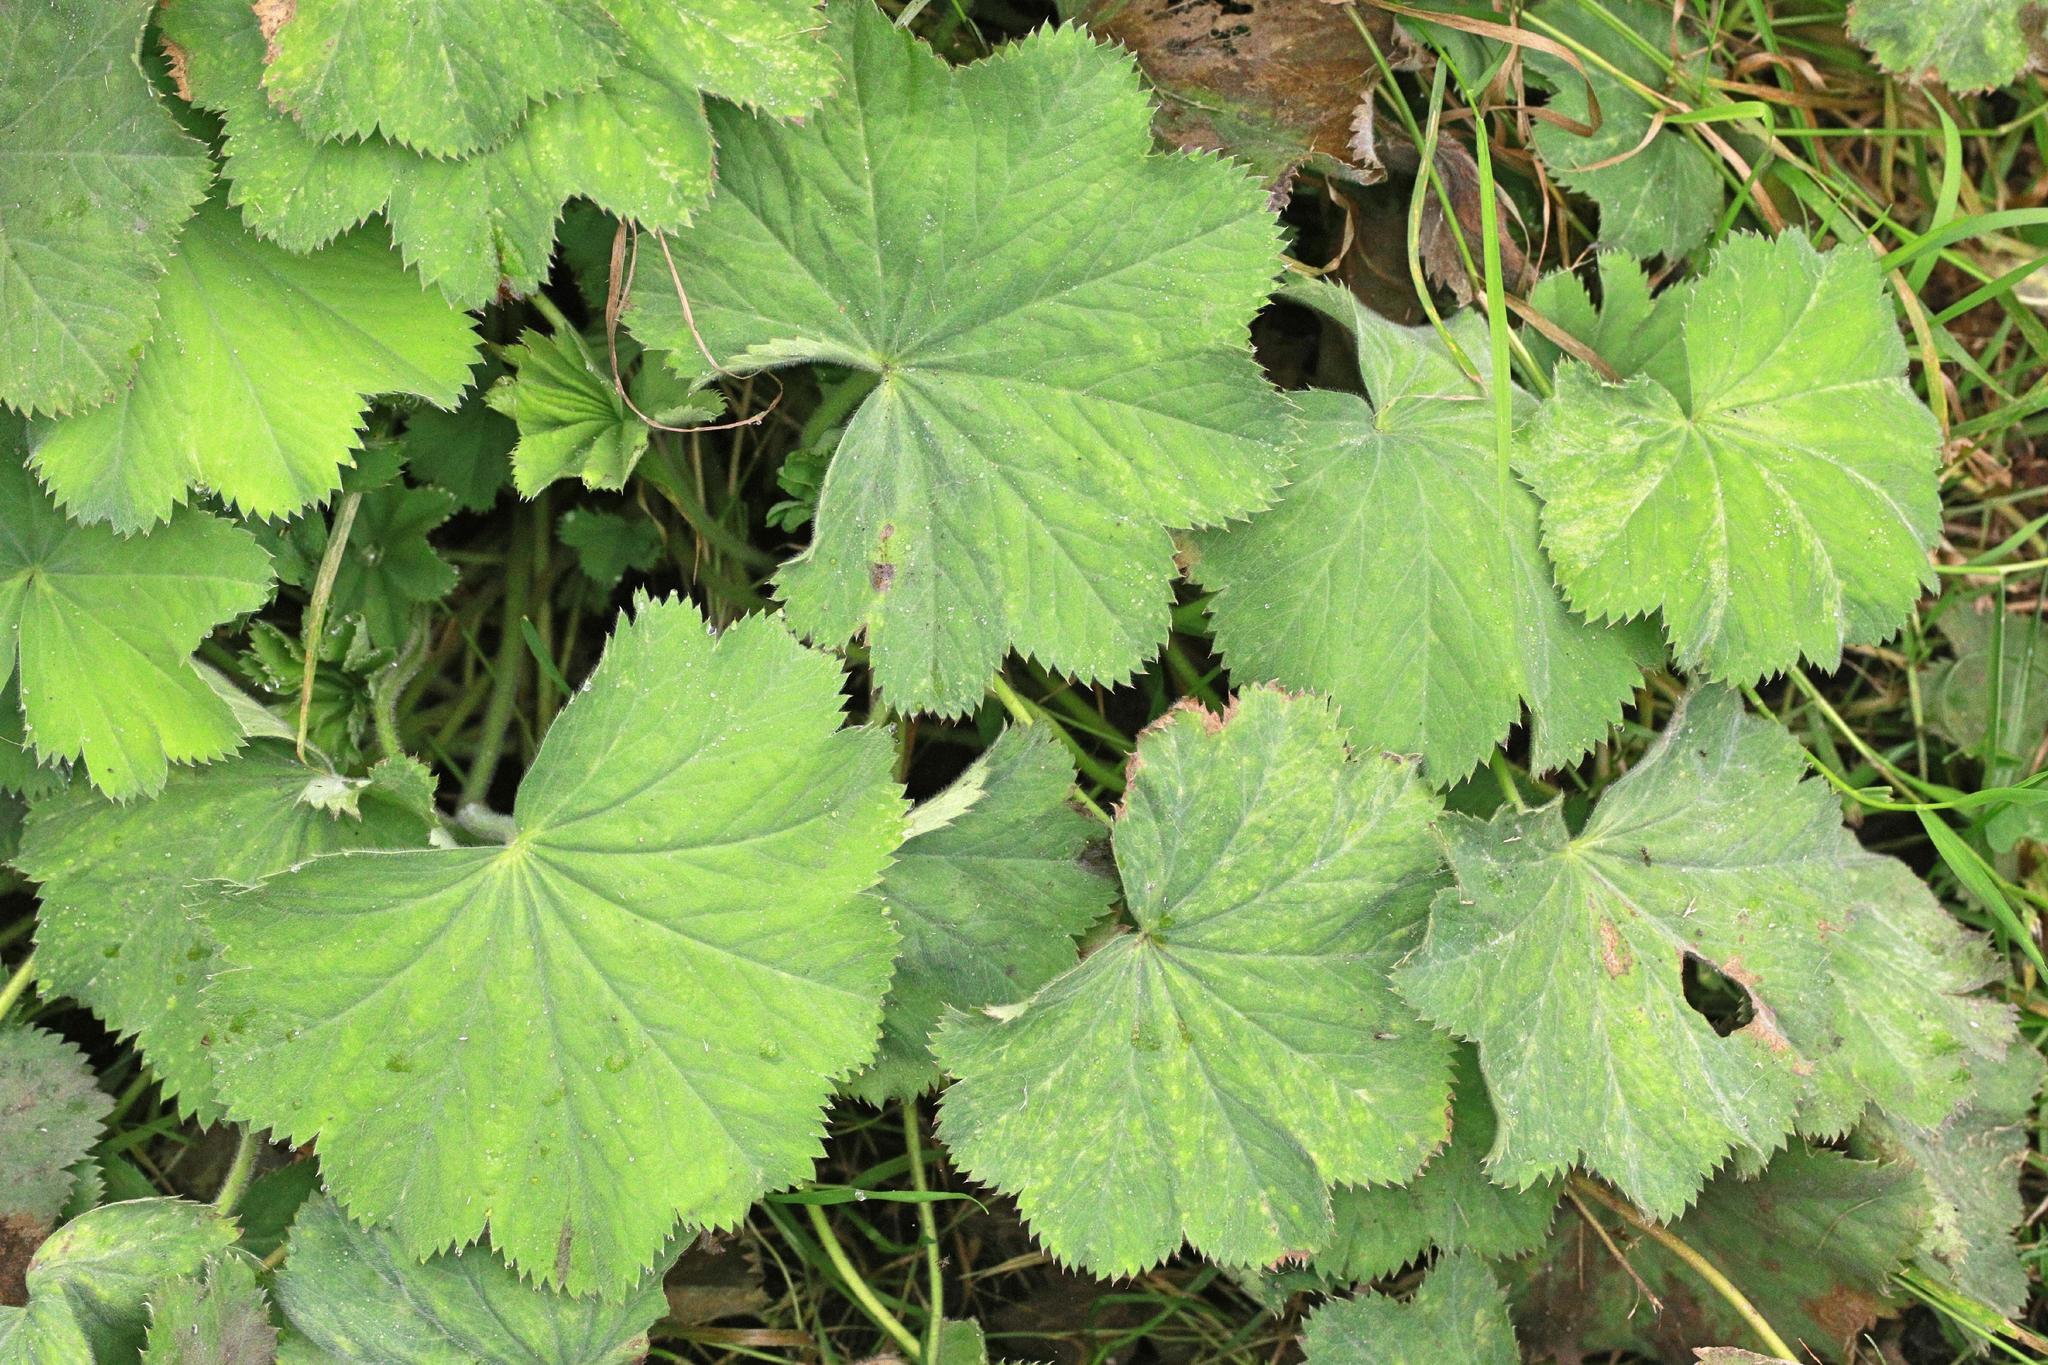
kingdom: Plantae
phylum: Tracheophyta
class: Magnoliopsida
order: Rosales
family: Rosaceae
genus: Alchemilla
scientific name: Alchemilla mollis
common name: Lady's-mantle
